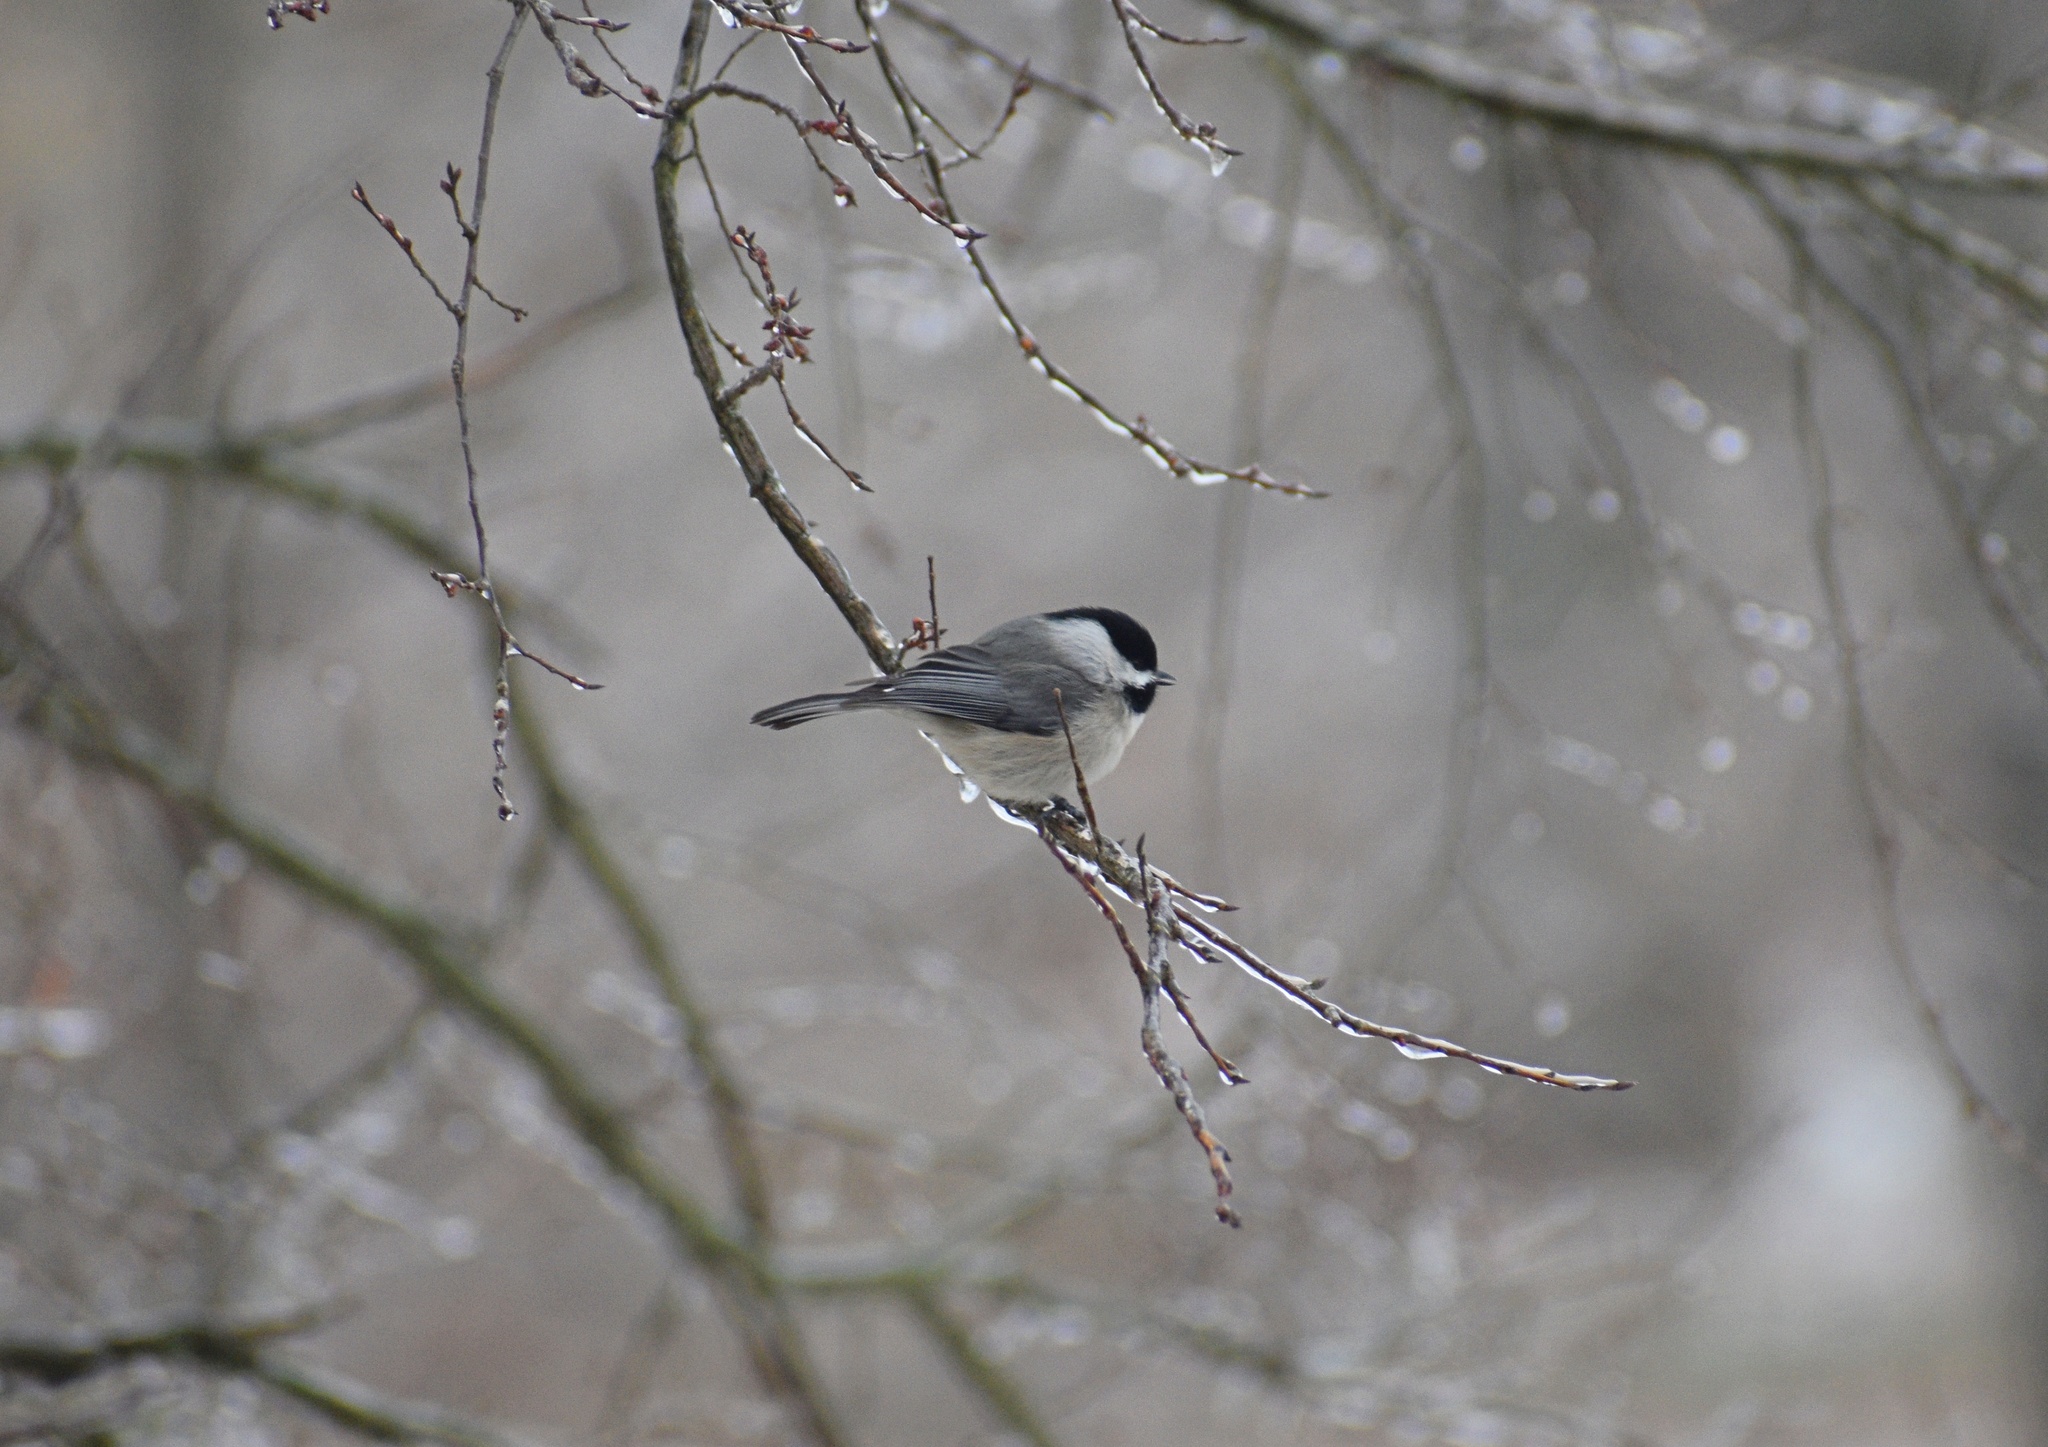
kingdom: Animalia
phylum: Chordata
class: Aves
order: Passeriformes
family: Paridae
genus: Poecile
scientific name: Poecile carolinensis
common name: Carolina chickadee
